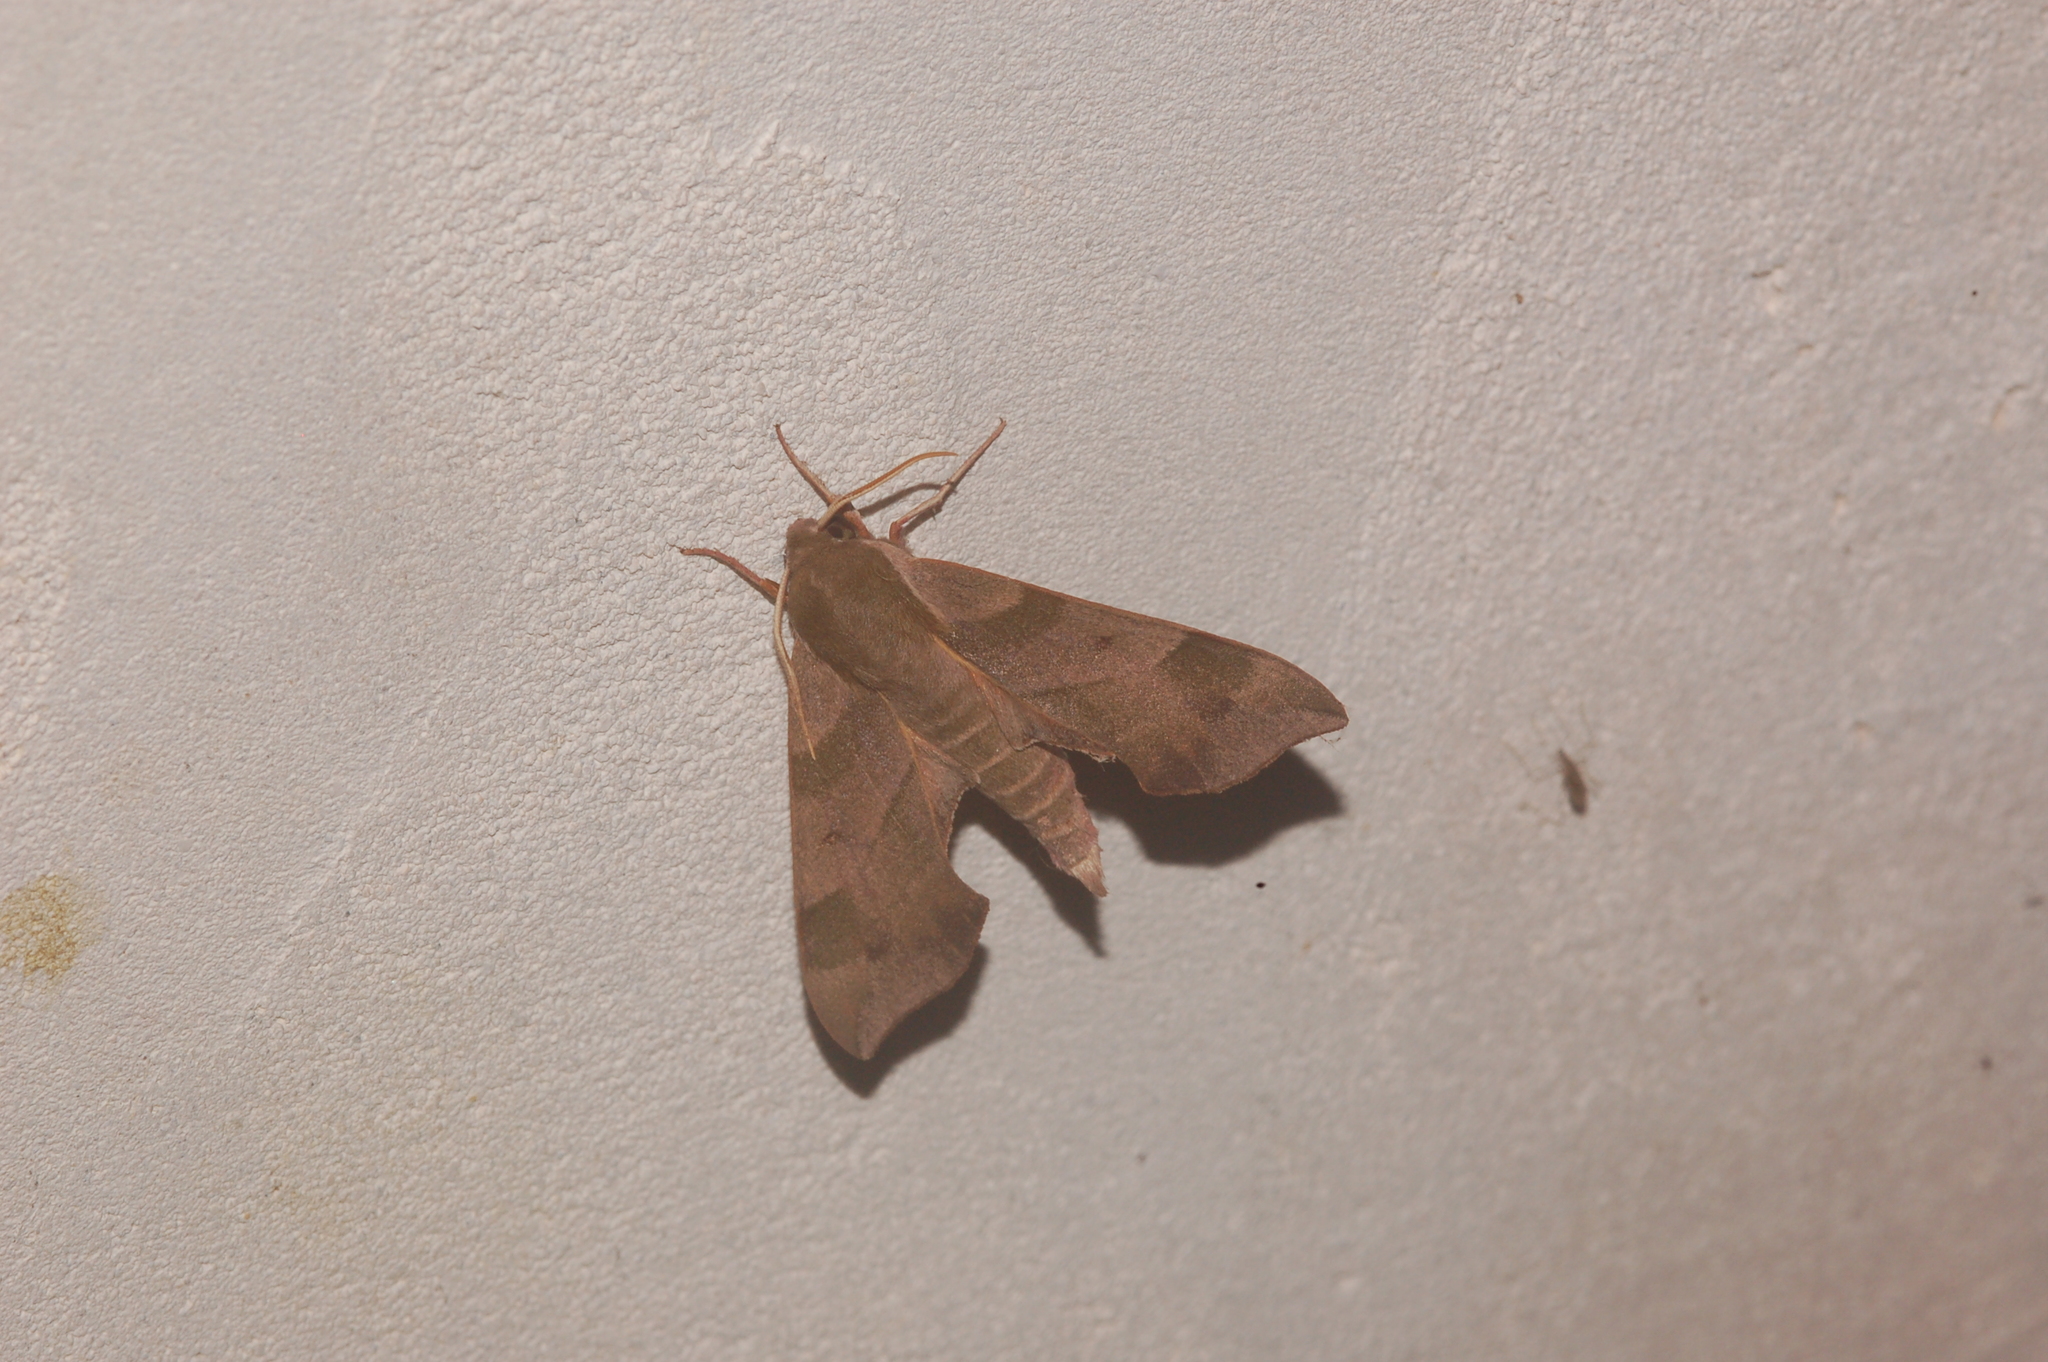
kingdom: Animalia
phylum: Arthropoda
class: Insecta
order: Lepidoptera
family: Sphingidae
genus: Darapsa
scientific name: Darapsa myron
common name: Hog sphinx
